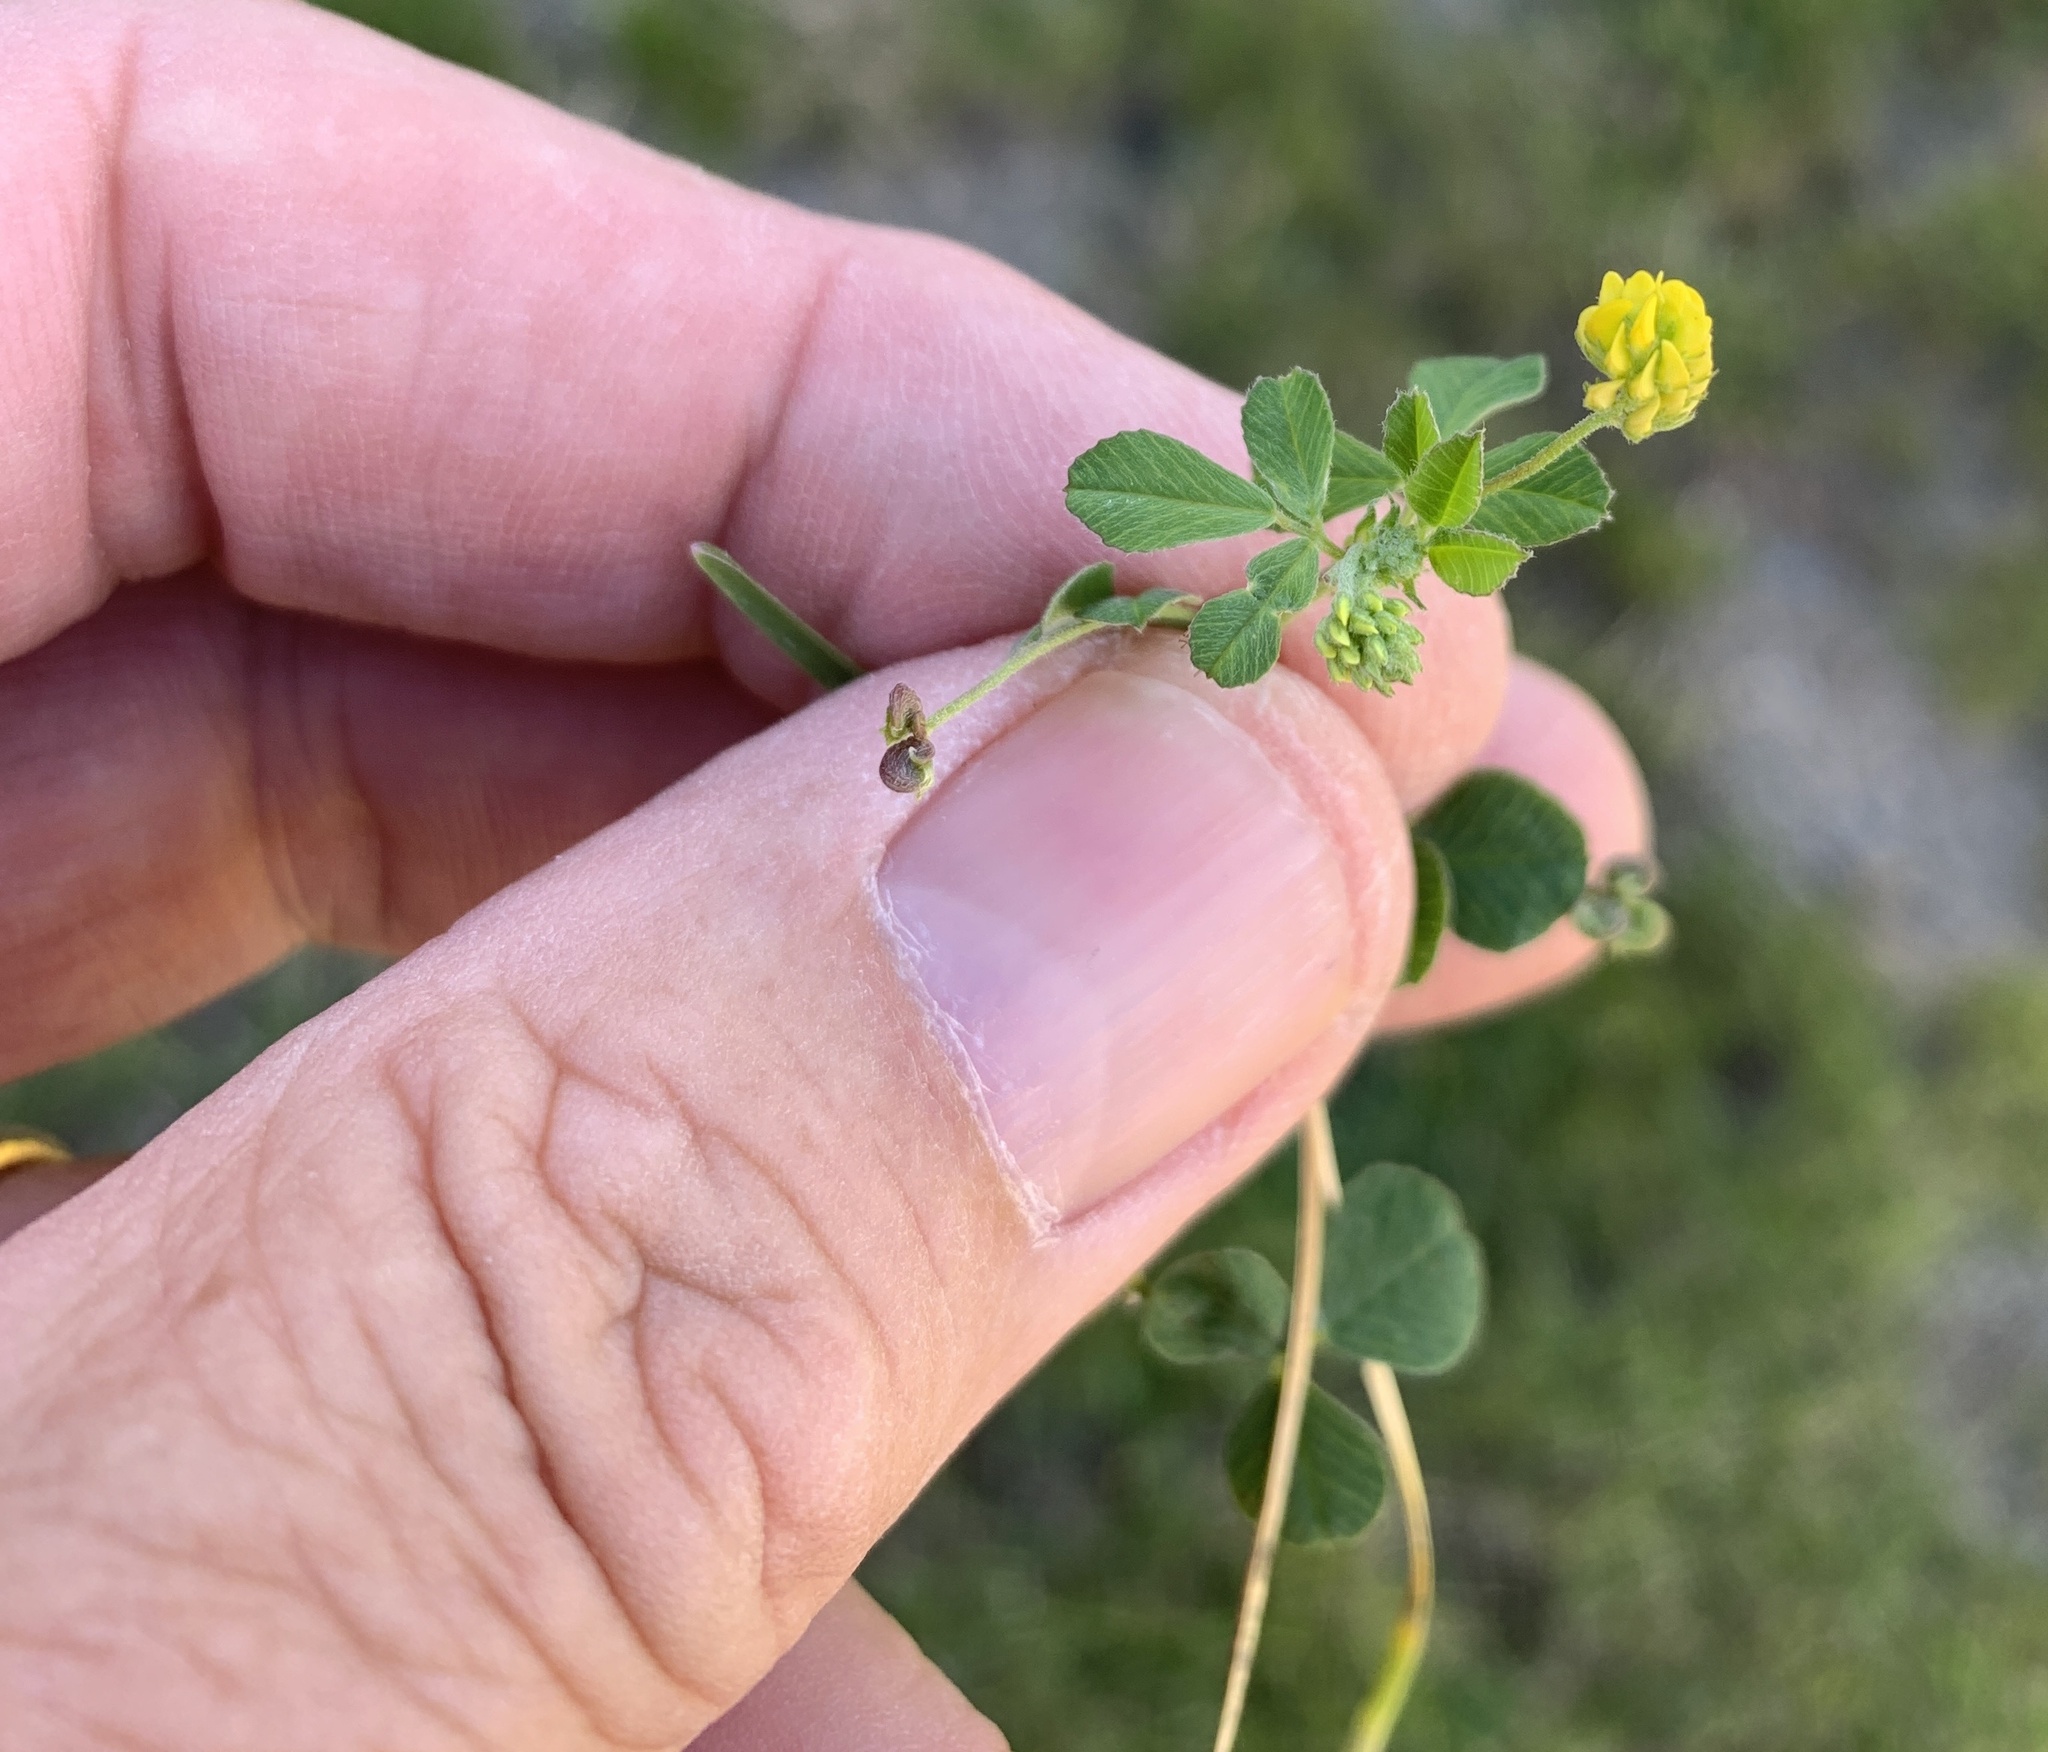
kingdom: Plantae
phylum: Tracheophyta
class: Magnoliopsida
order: Fabales
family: Fabaceae
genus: Medicago
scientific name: Medicago lupulina
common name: Black medick
